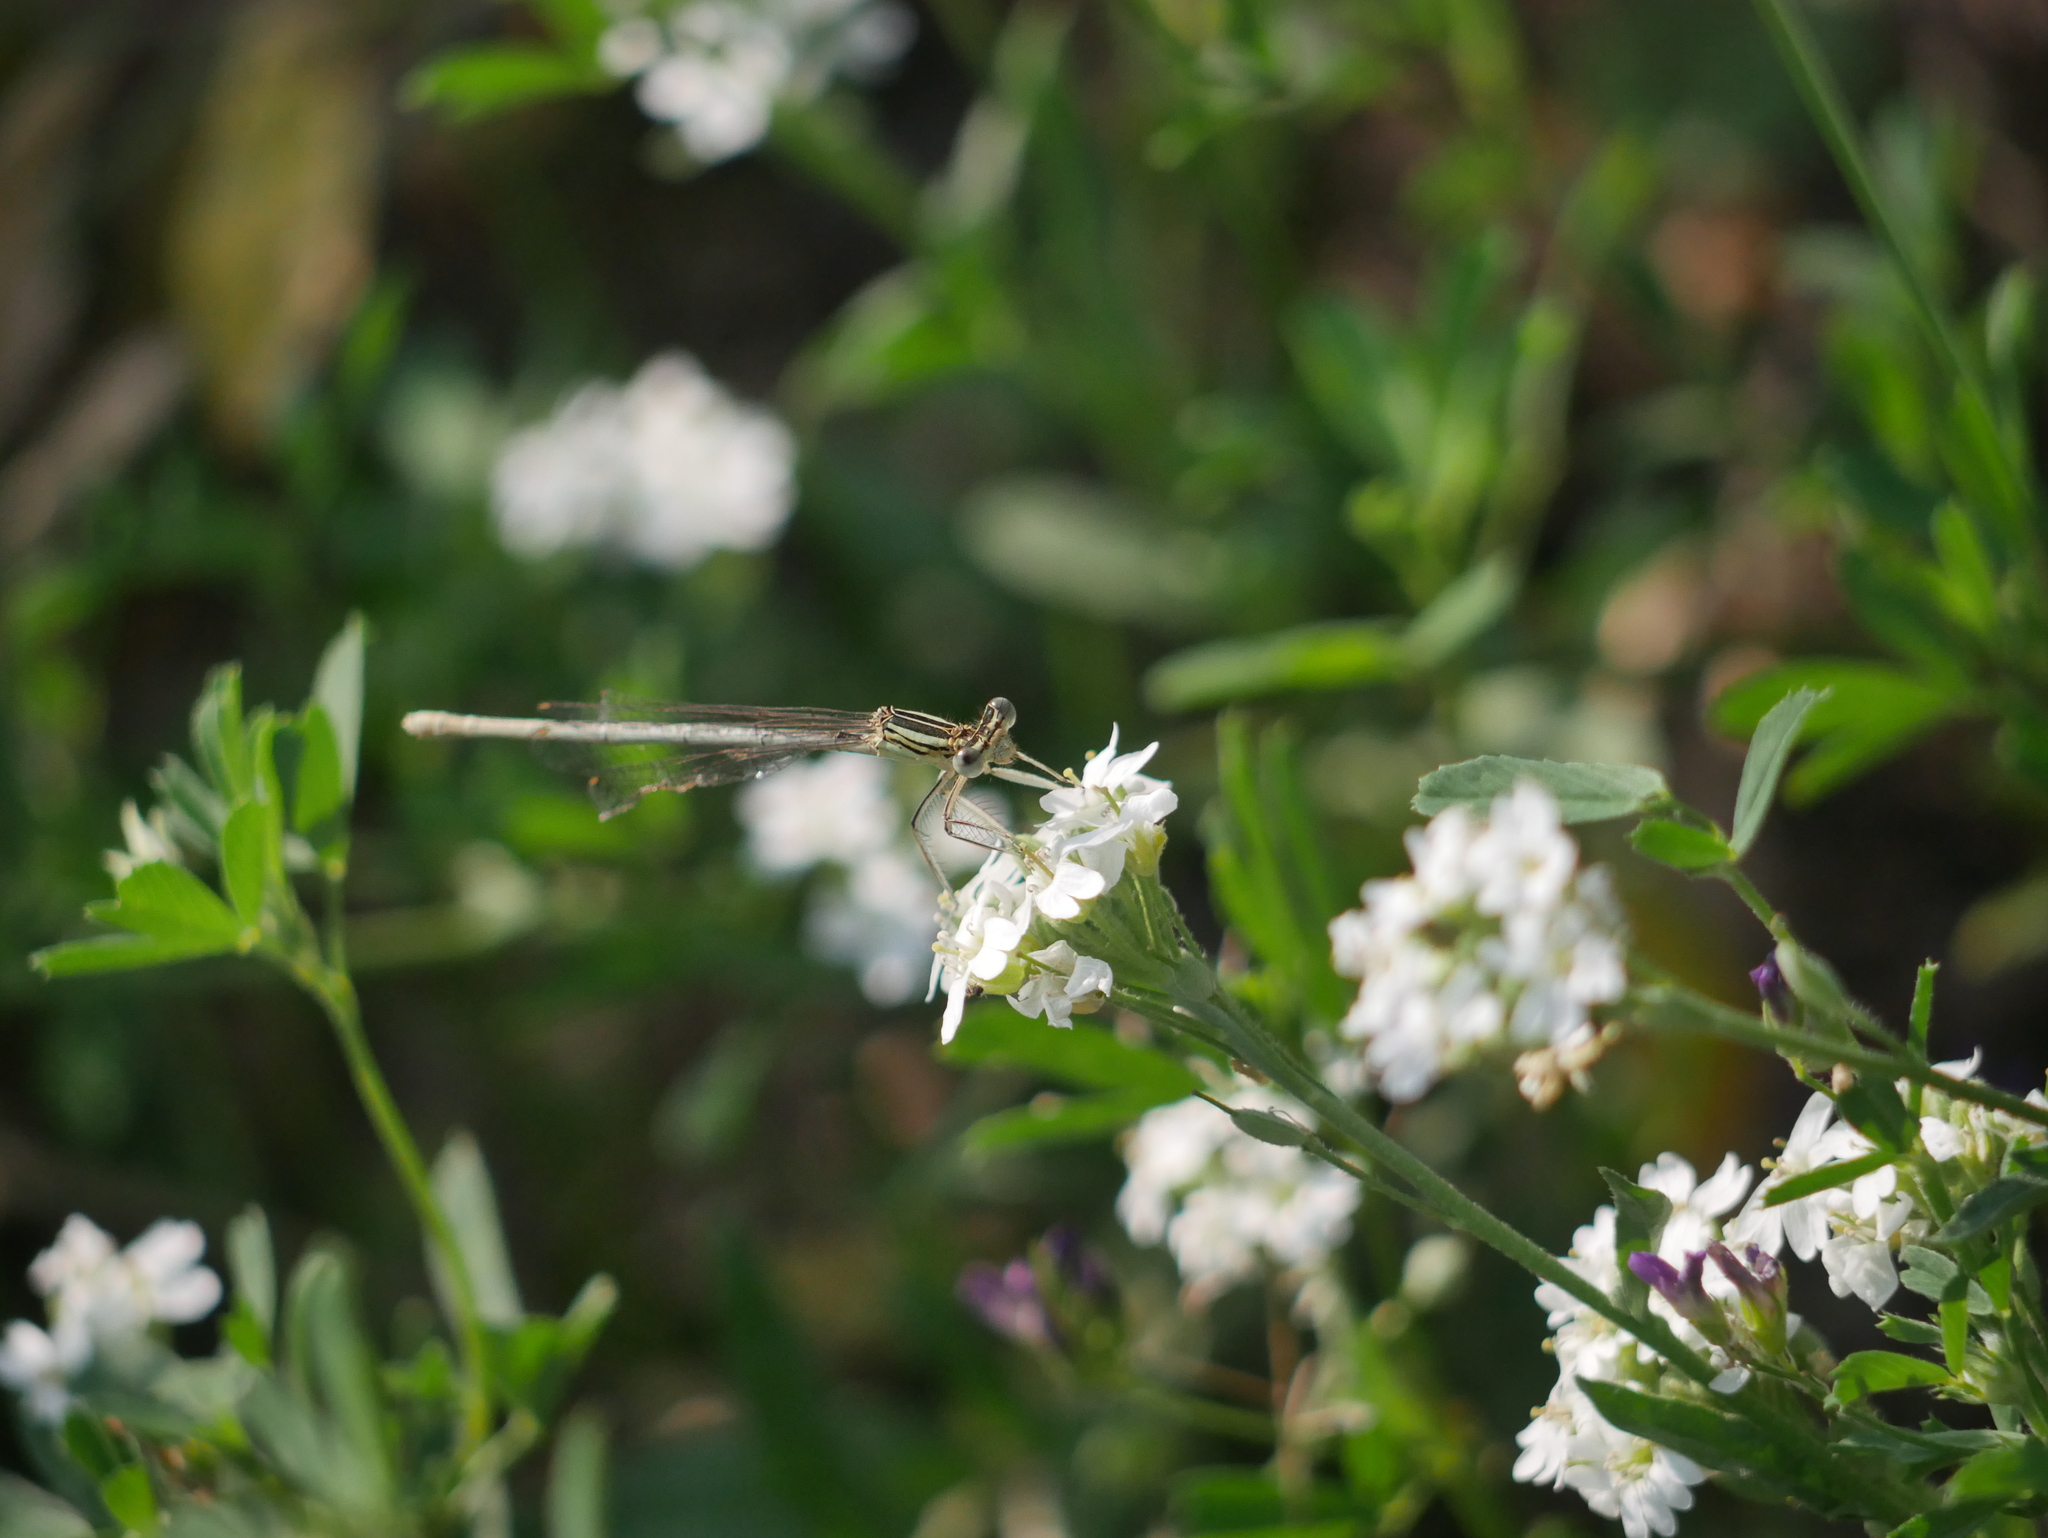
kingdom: Animalia
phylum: Arthropoda
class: Insecta
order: Odonata
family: Platycnemididae
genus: Platycnemis
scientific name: Platycnemis pennipes
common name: White-legged damselfly
